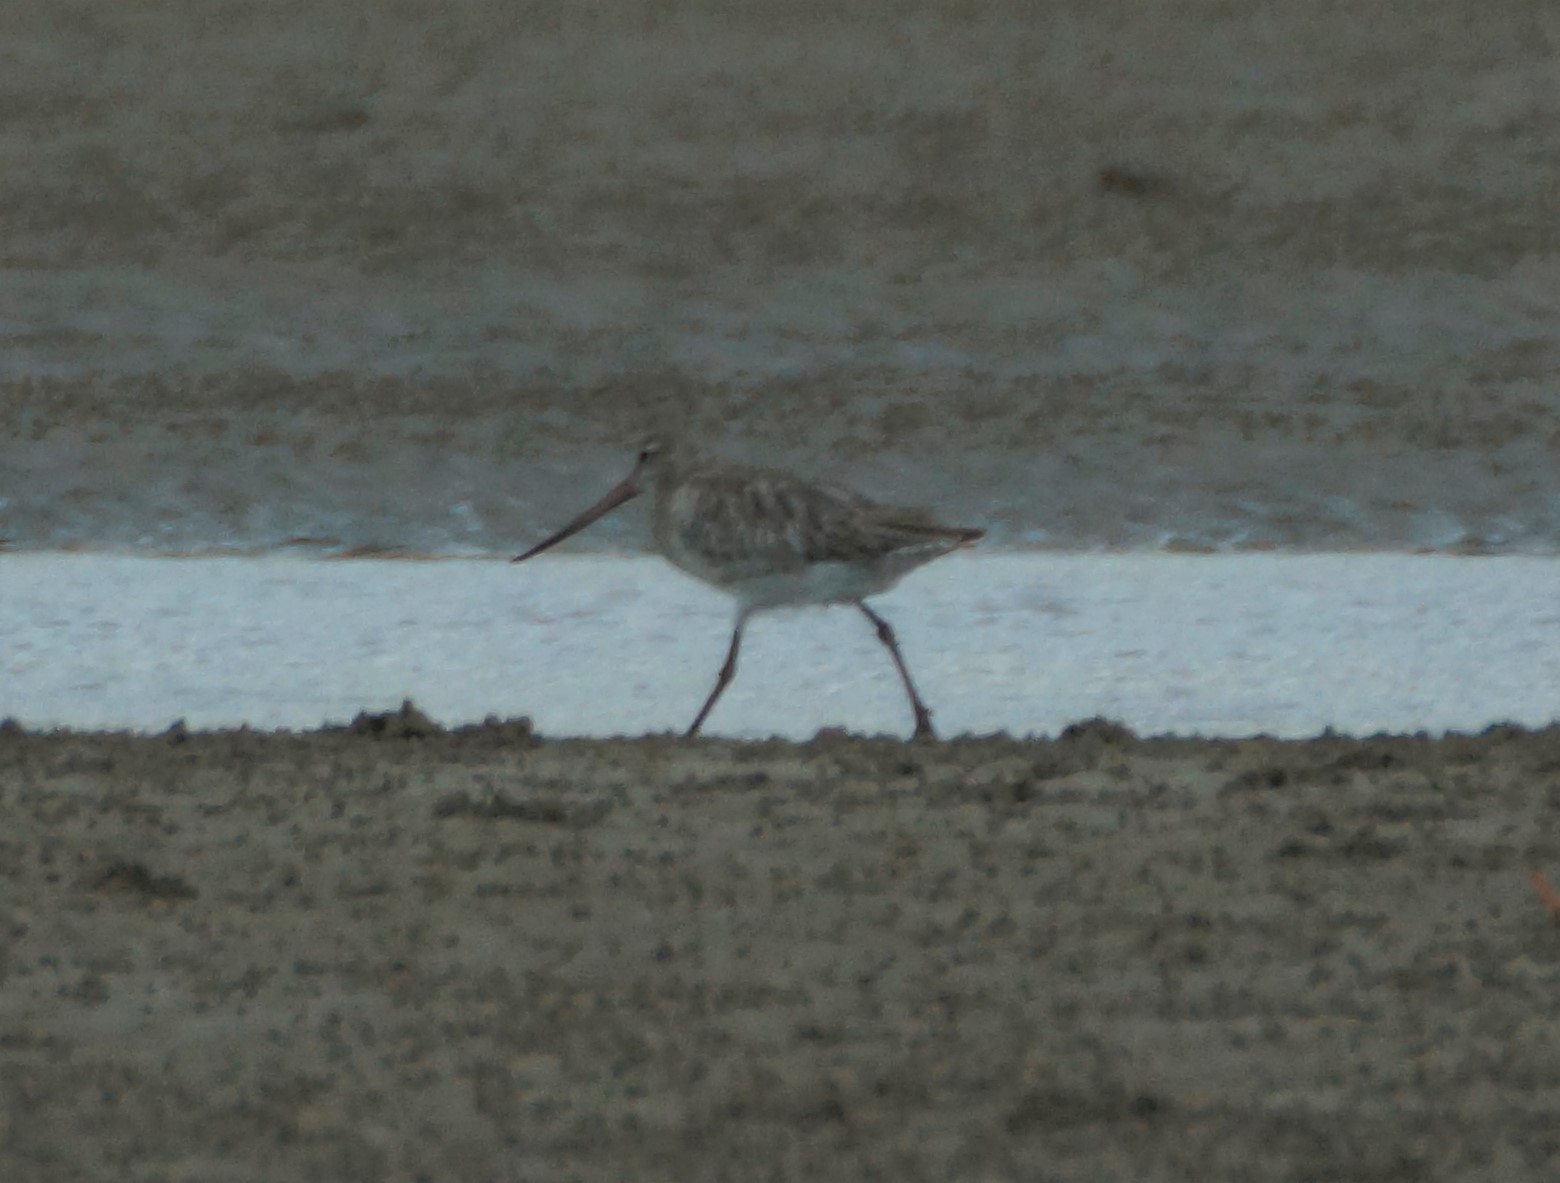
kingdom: Animalia
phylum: Chordata
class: Aves
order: Charadriiformes
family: Scolopacidae
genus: Limosa
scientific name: Limosa lapponica
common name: Bar-tailed godwit
